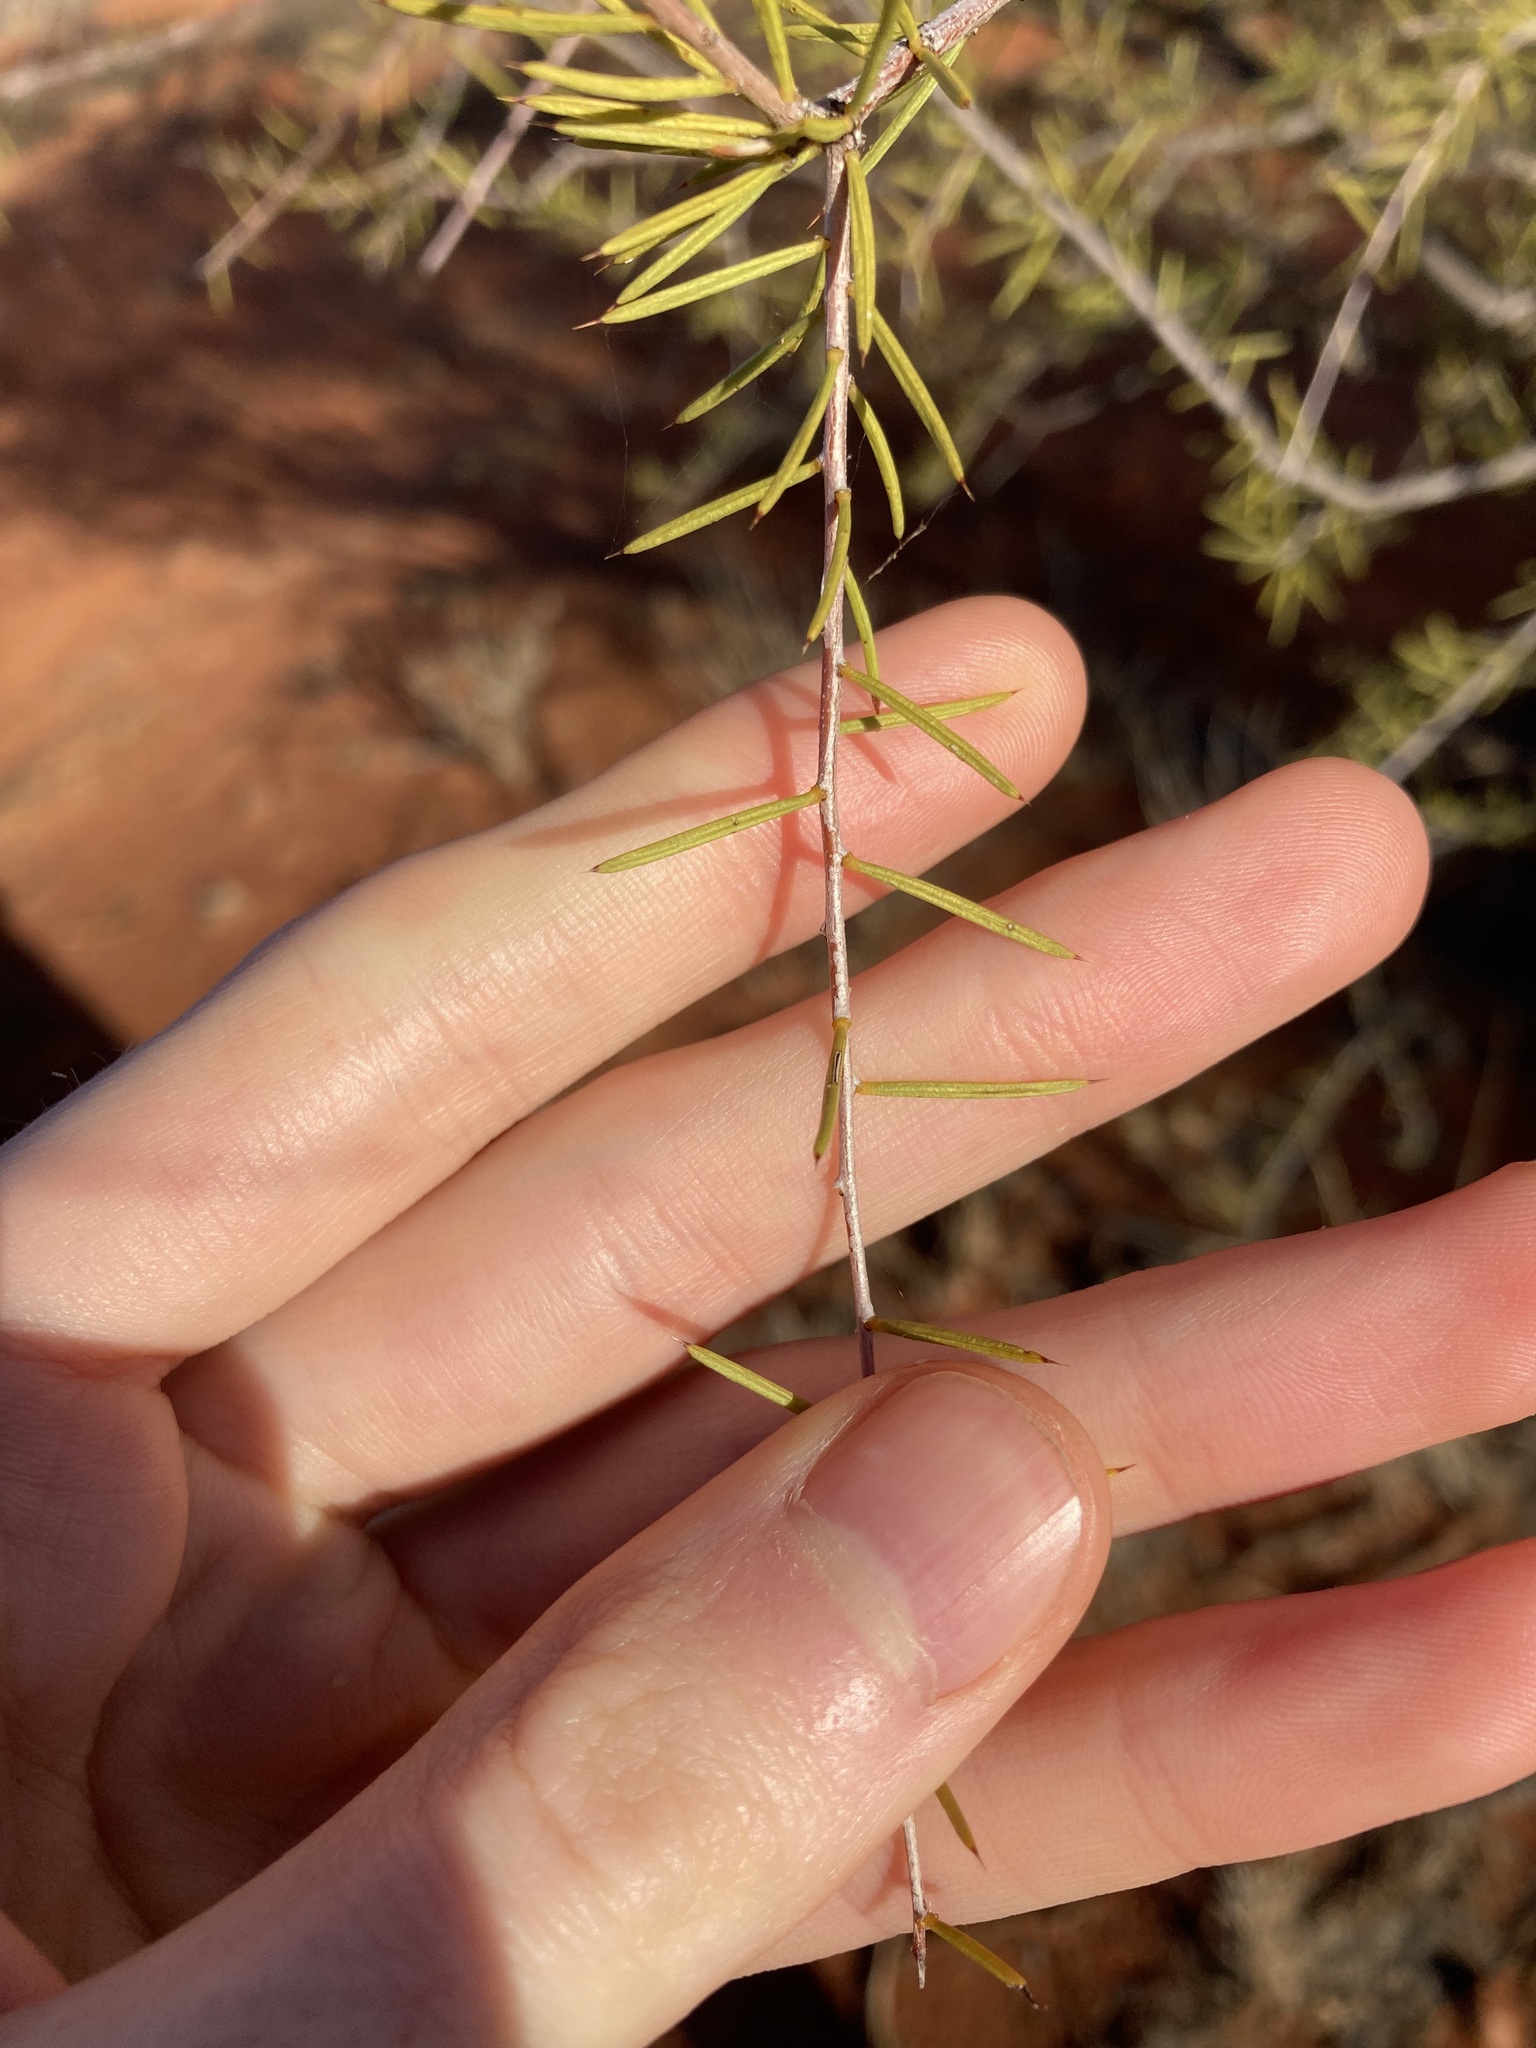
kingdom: Plantae
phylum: Tracheophyta
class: Magnoliopsida
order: Fabales
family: Fabaceae
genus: Acacia
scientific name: Acacia tetragonophylla
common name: Dead finish
